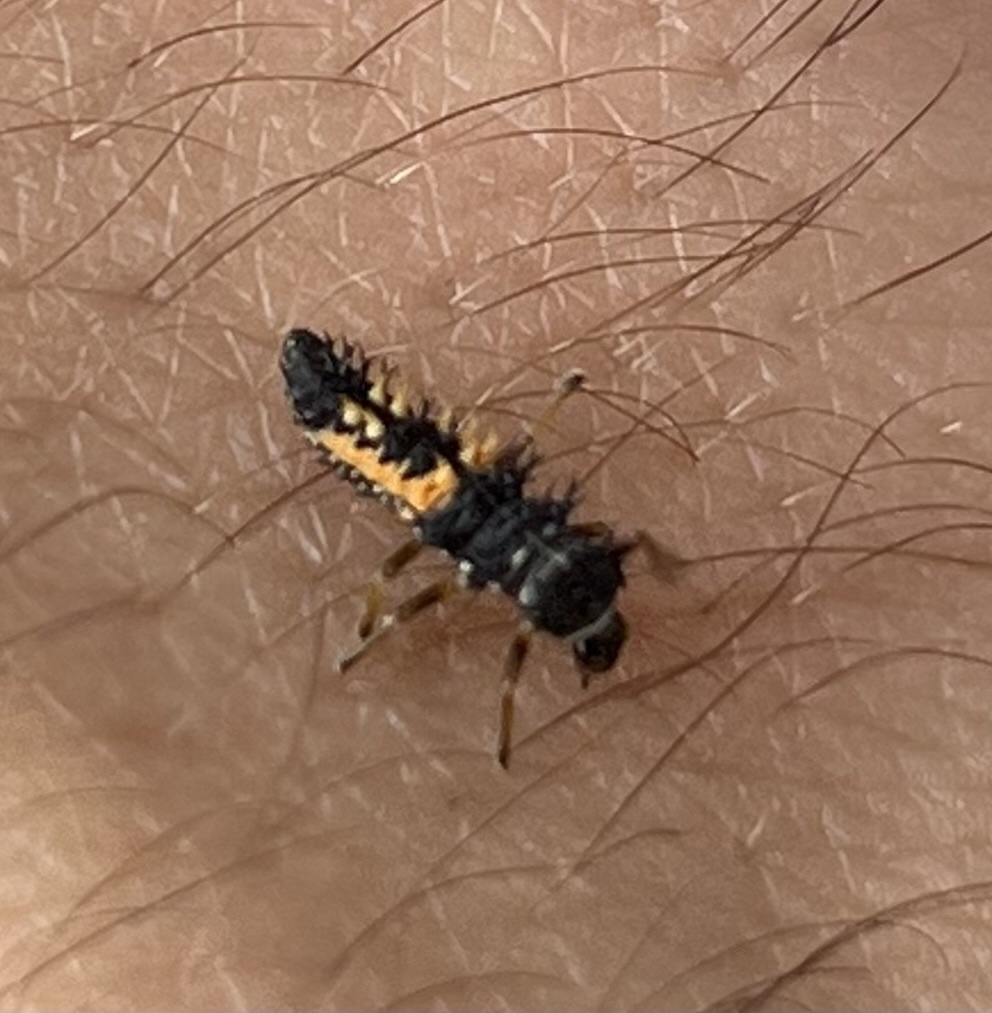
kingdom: Animalia
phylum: Arthropoda
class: Insecta
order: Coleoptera
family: Coccinellidae
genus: Harmonia
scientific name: Harmonia axyridis
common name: Harlequin ladybird
